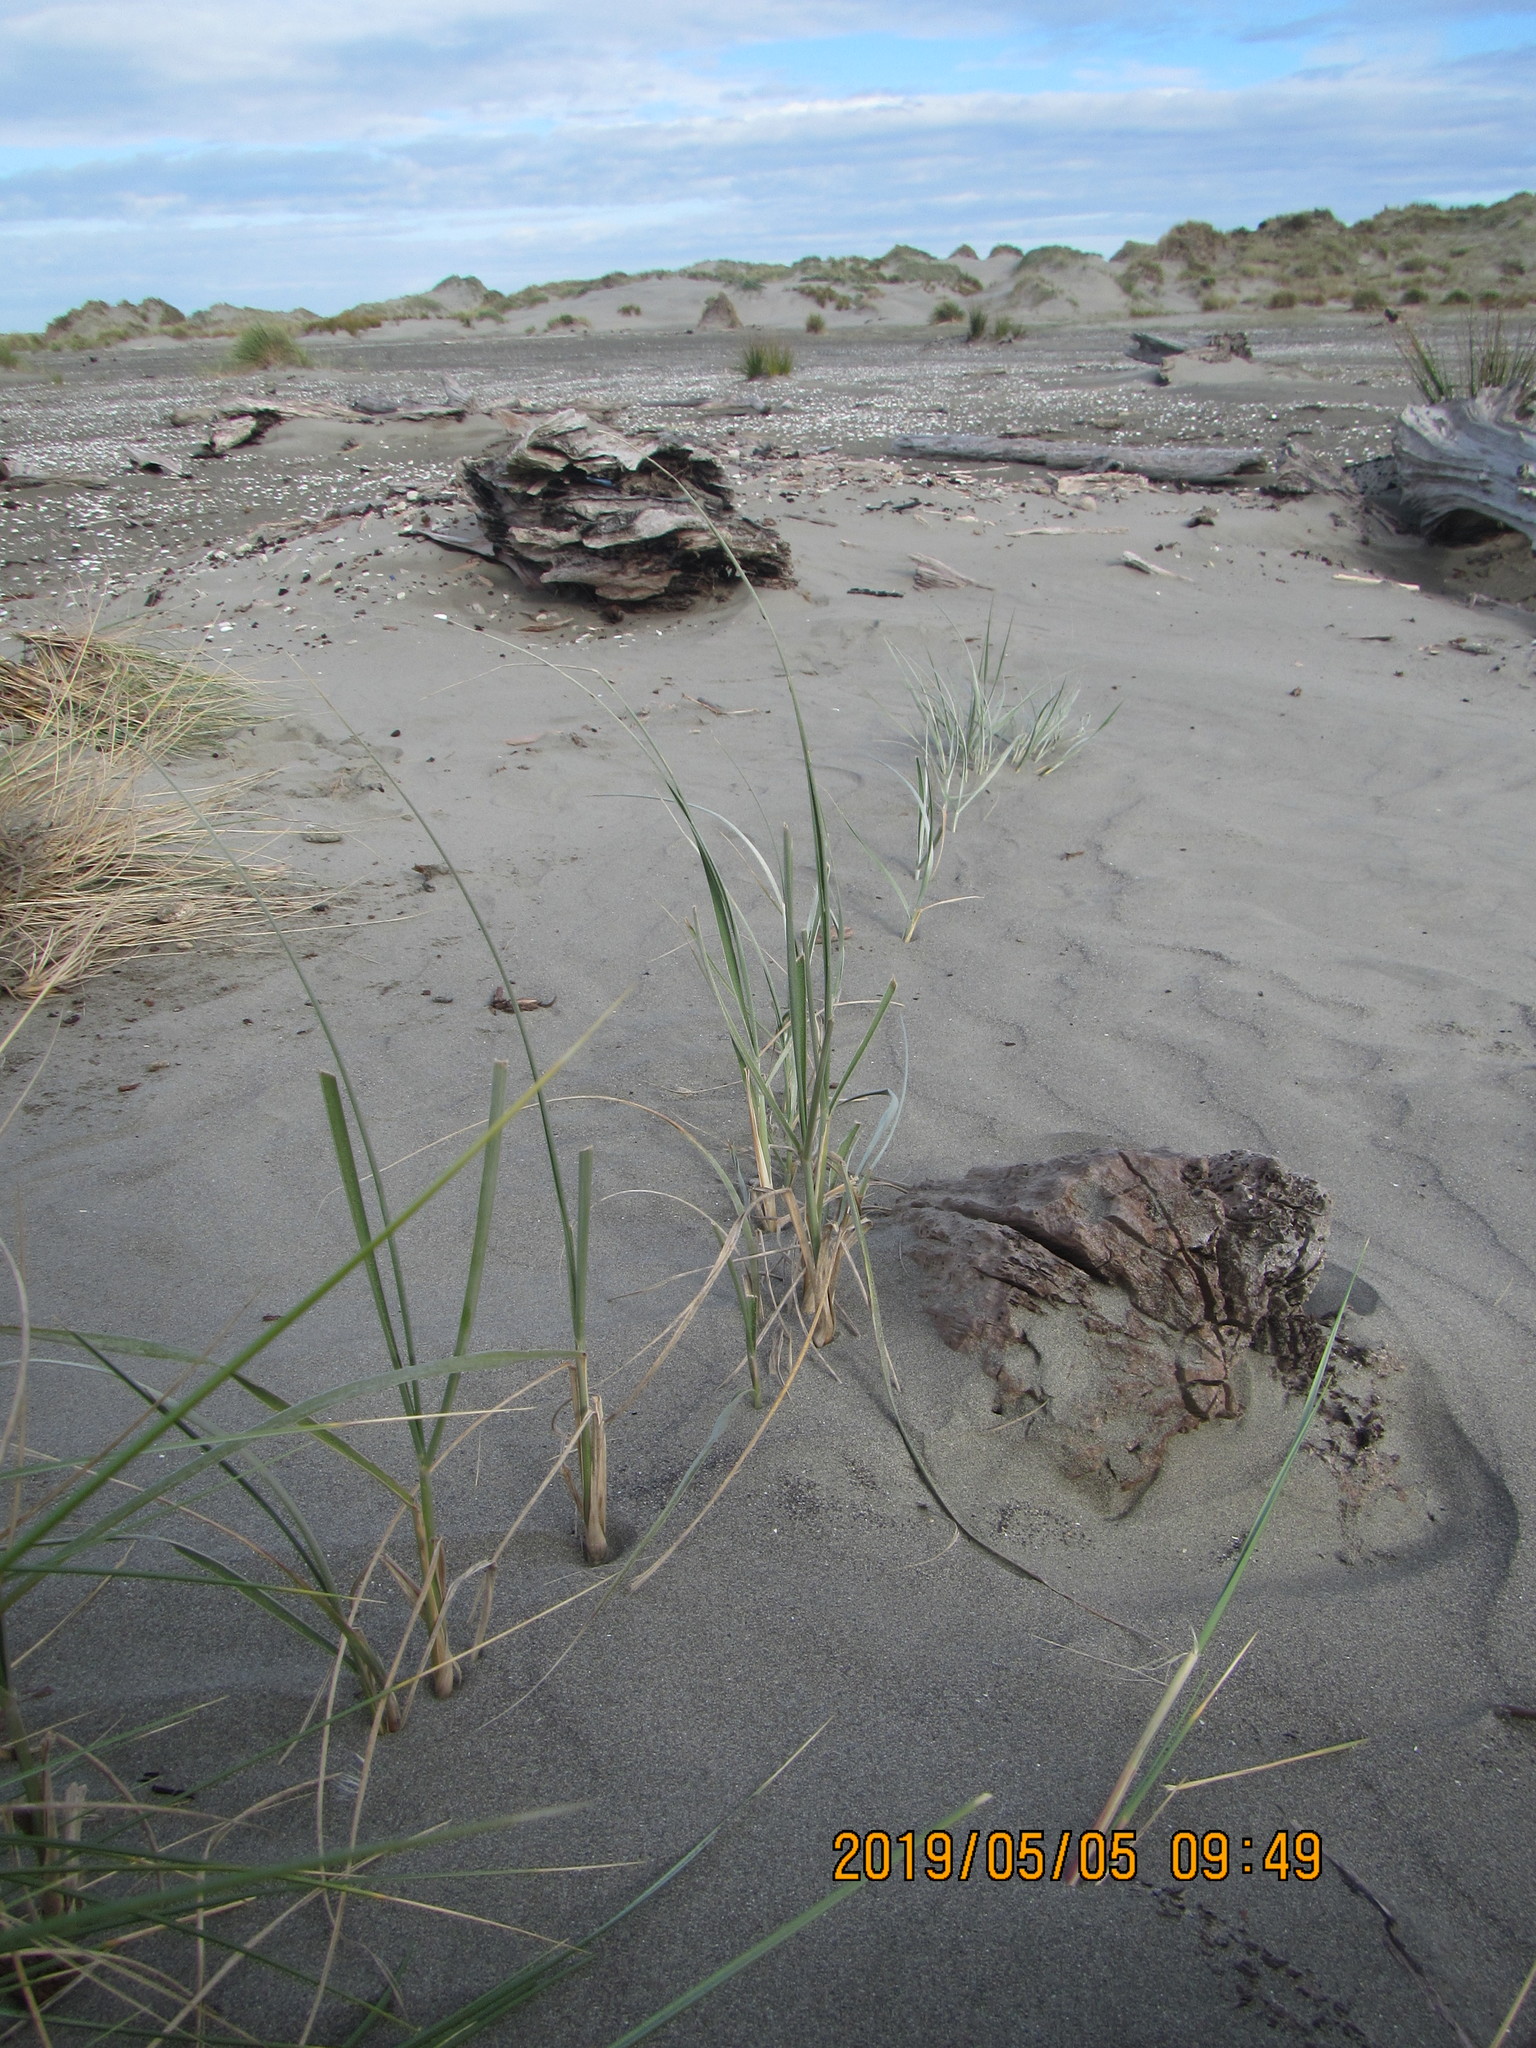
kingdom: Plantae
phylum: Tracheophyta
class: Liliopsida
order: Poales
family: Poaceae
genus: Spinifex
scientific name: Spinifex sericeus
